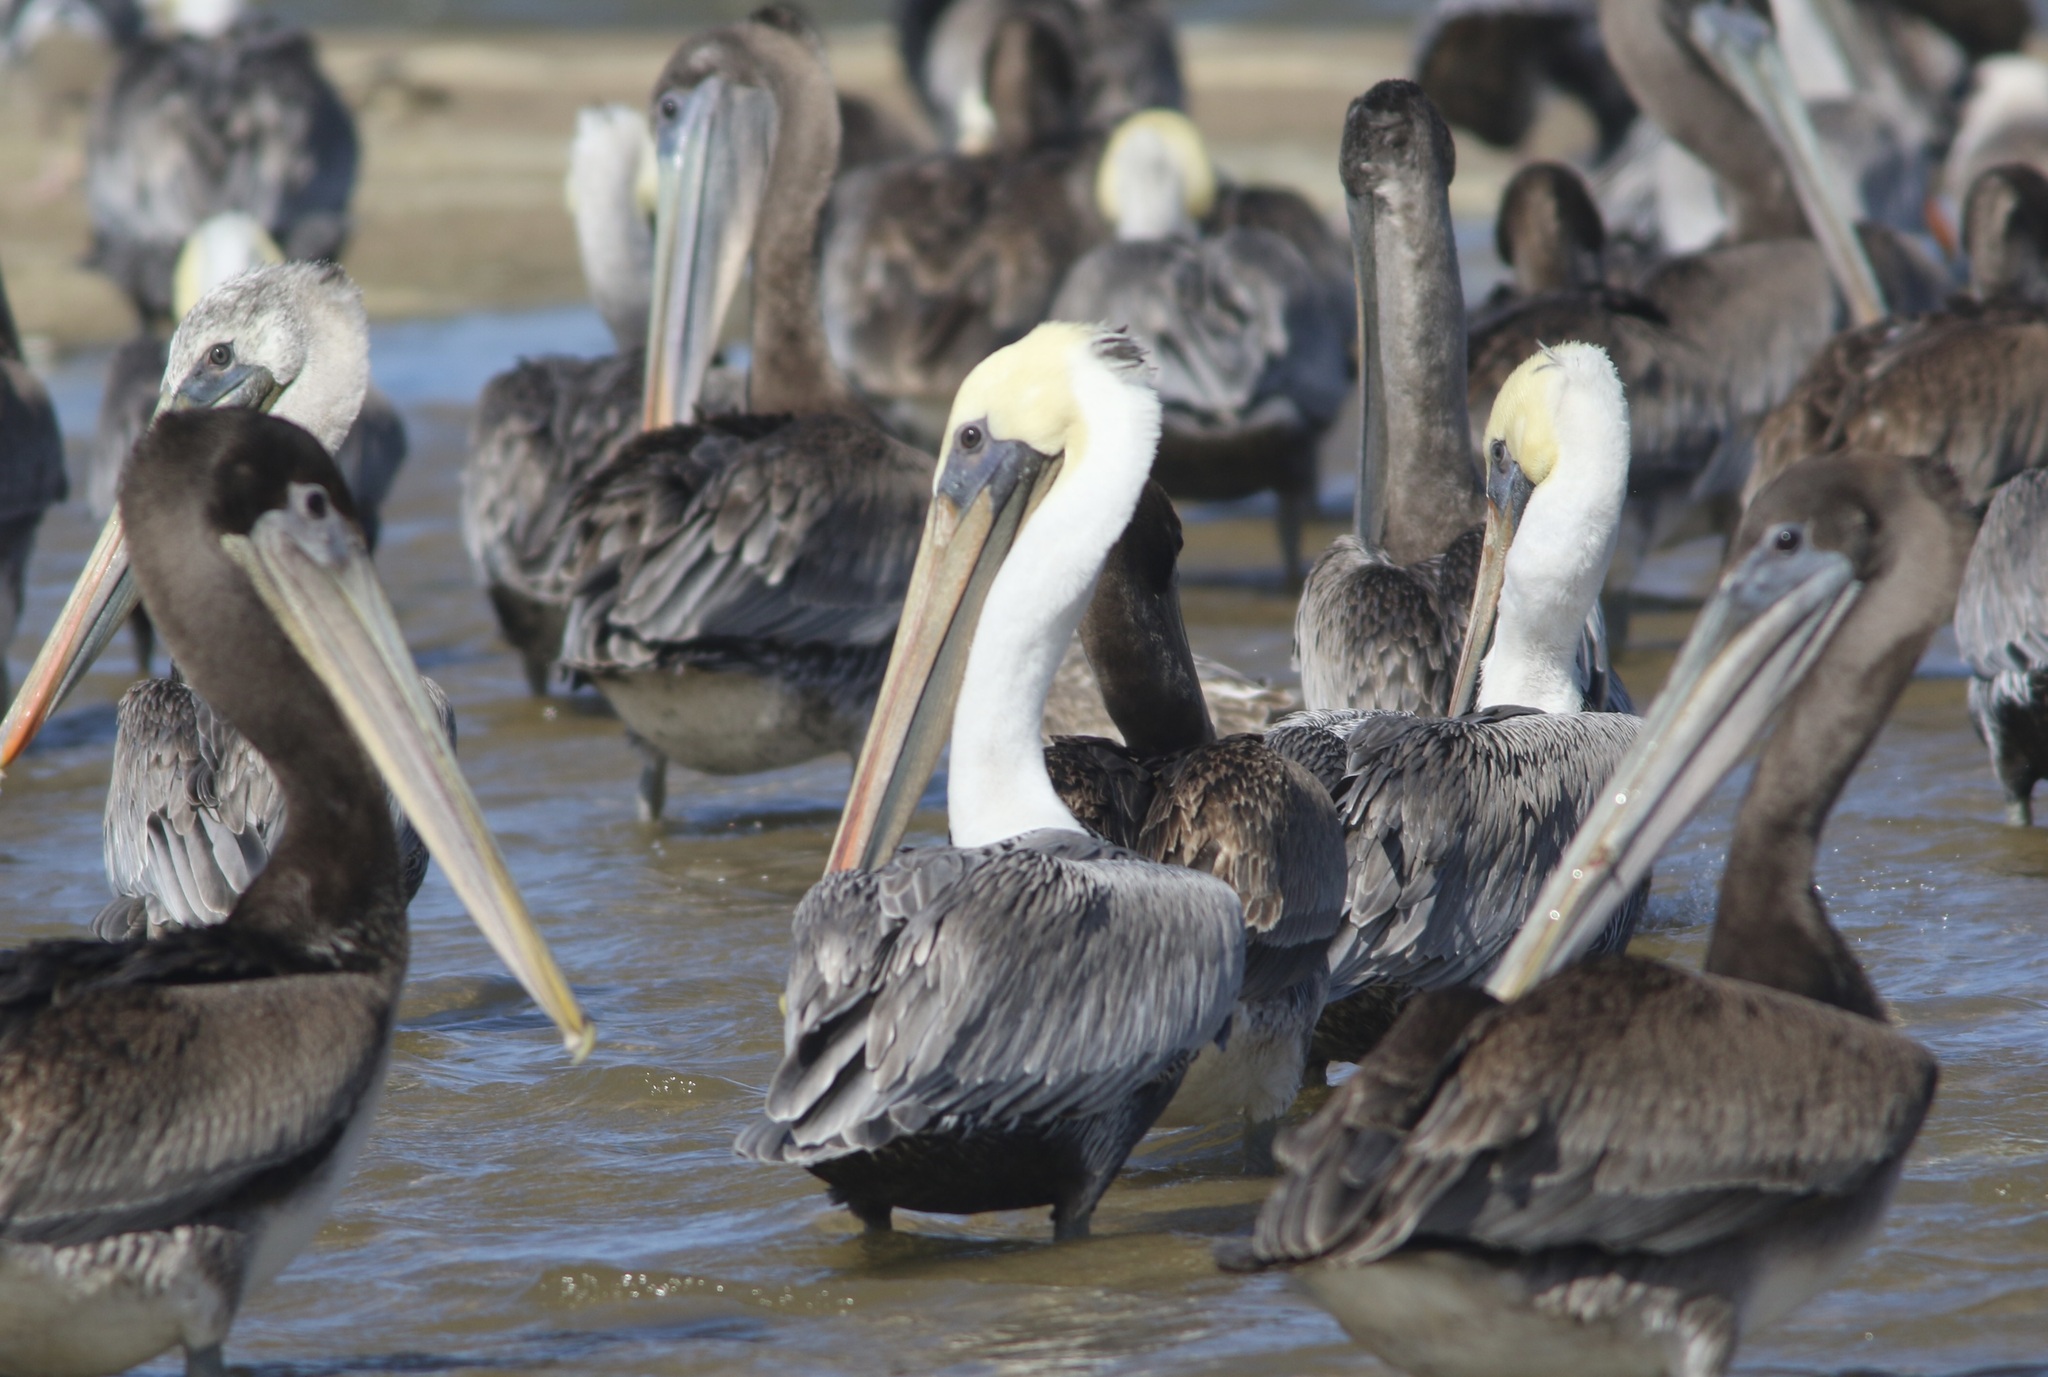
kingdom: Animalia
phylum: Chordata
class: Aves
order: Pelecaniformes
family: Pelecanidae
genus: Pelecanus
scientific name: Pelecanus occidentalis
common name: Brown pelican
